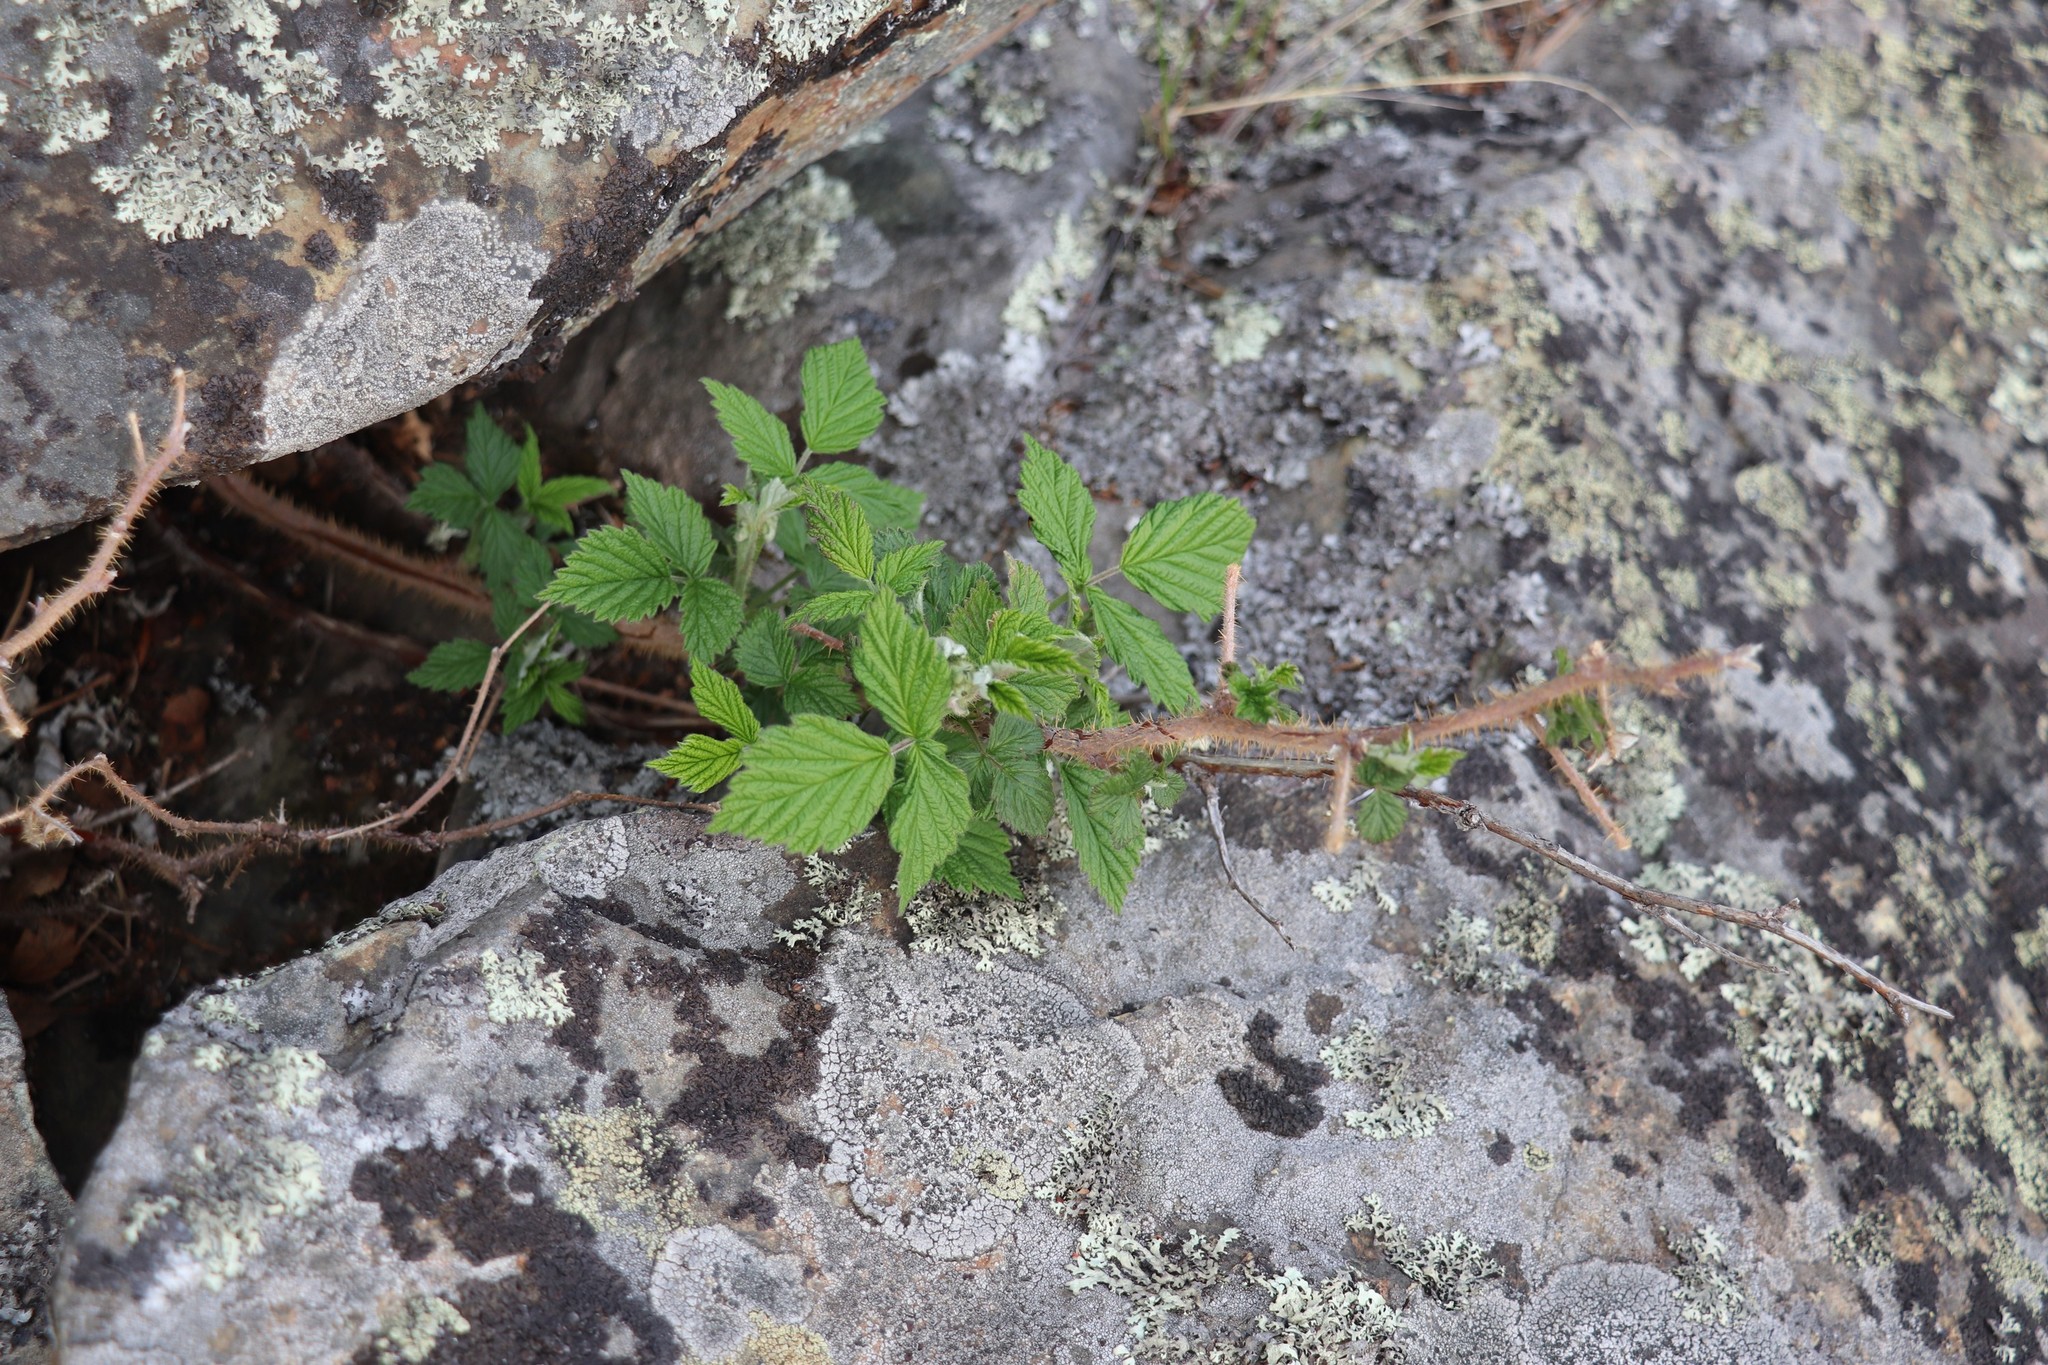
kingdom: Plantae
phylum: Tracheophyta
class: Magnoliopsida
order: Rosales
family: Rosaceae
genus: Rubus
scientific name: Rubus idaeus
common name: Raspberry
